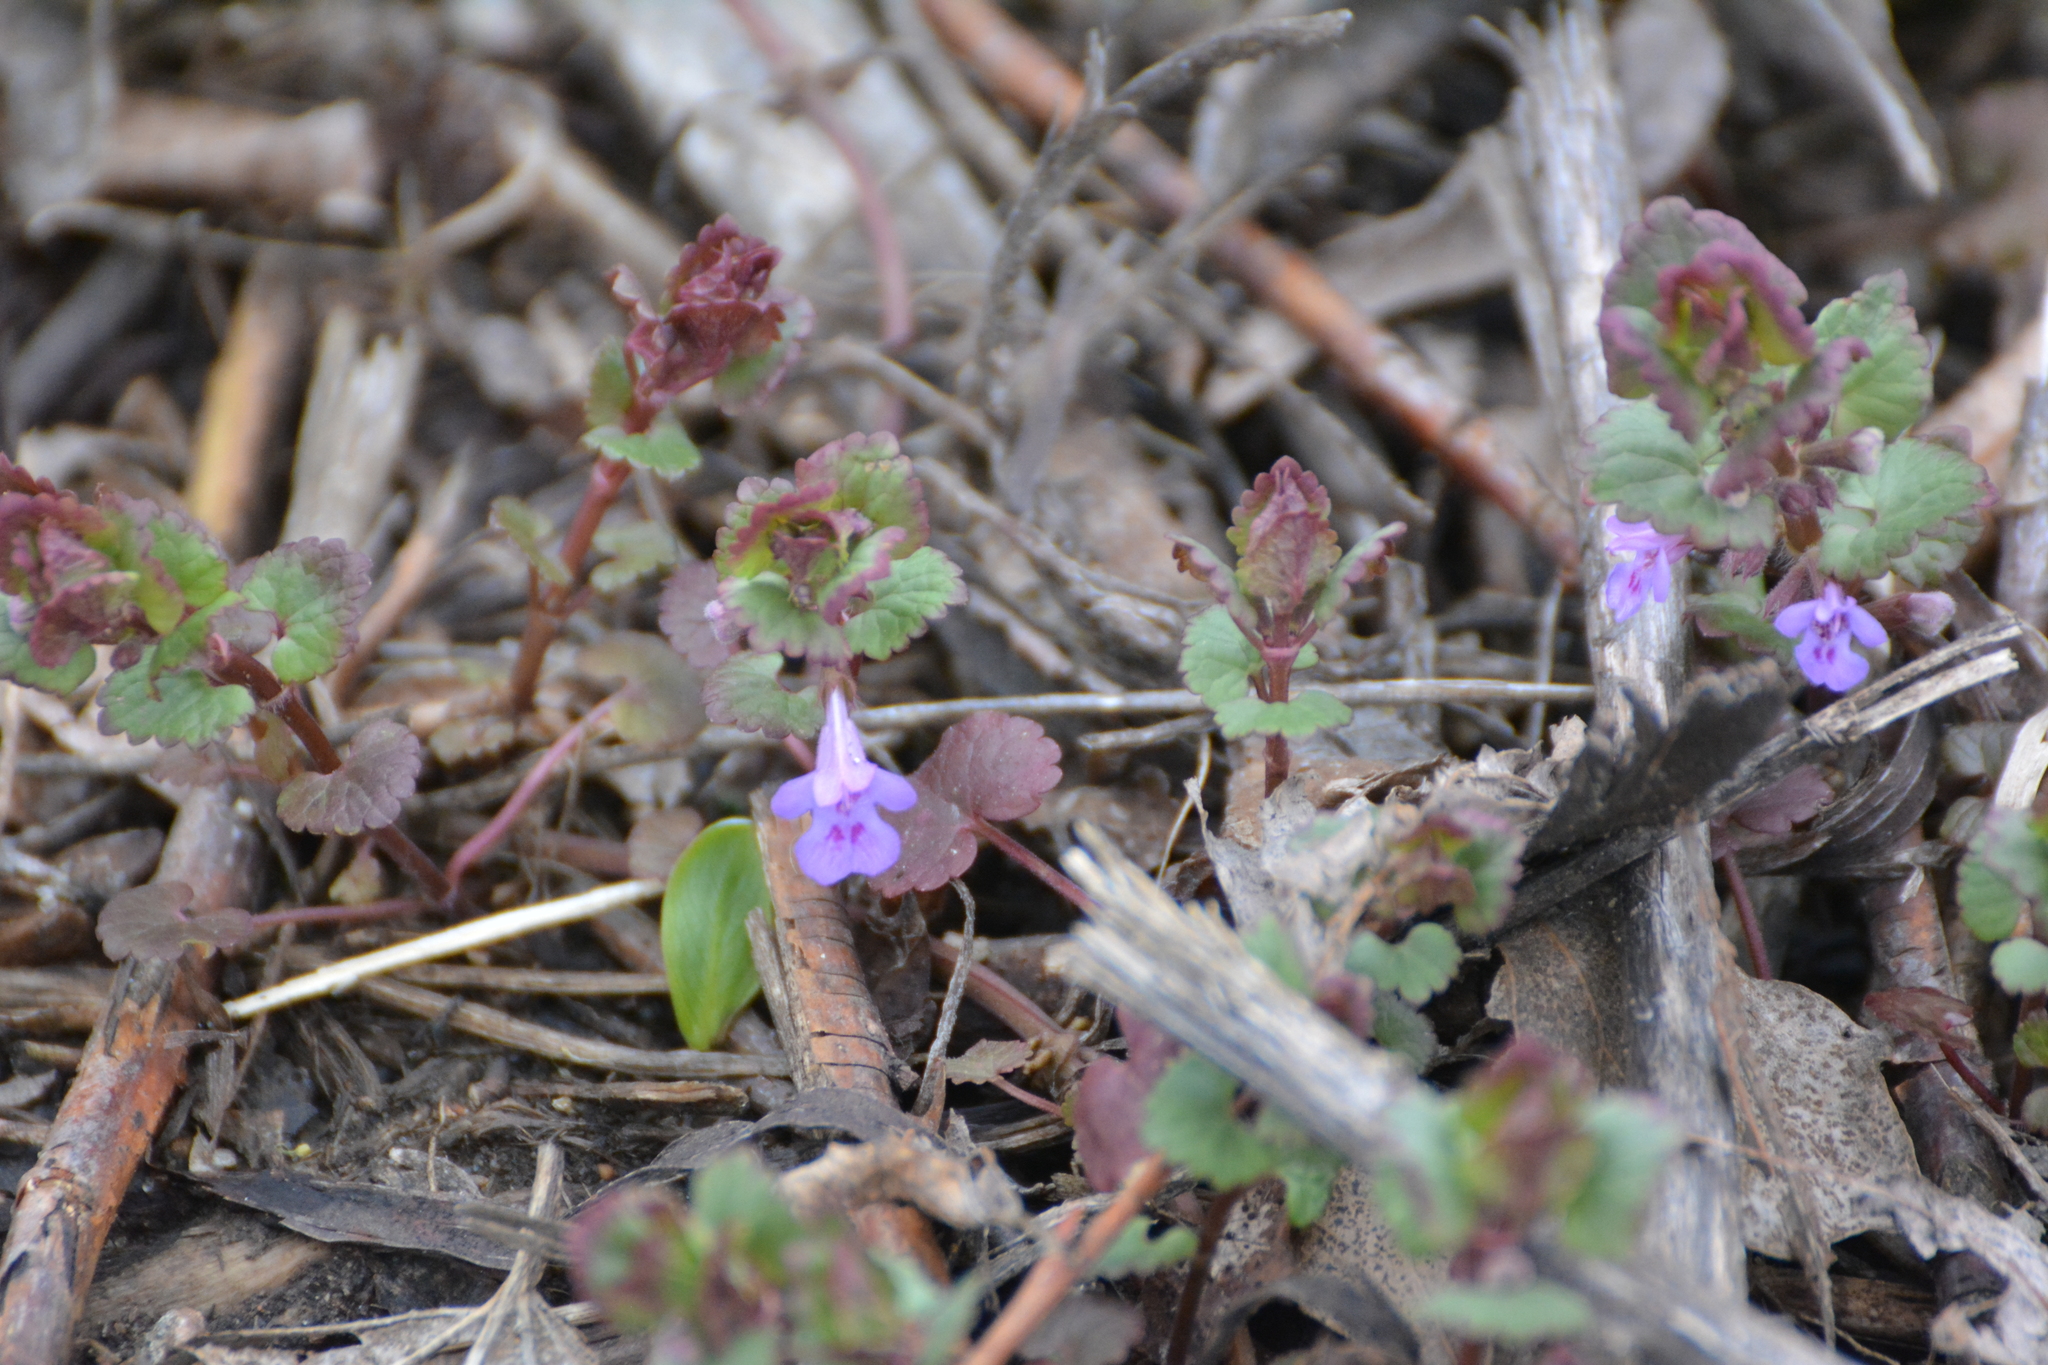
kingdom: Plantae
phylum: Tracheophyta
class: Magnoliopsida
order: Lamiales
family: Lamiaceae
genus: Glechoma
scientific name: Glechoma hederacea
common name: Ground ivy
